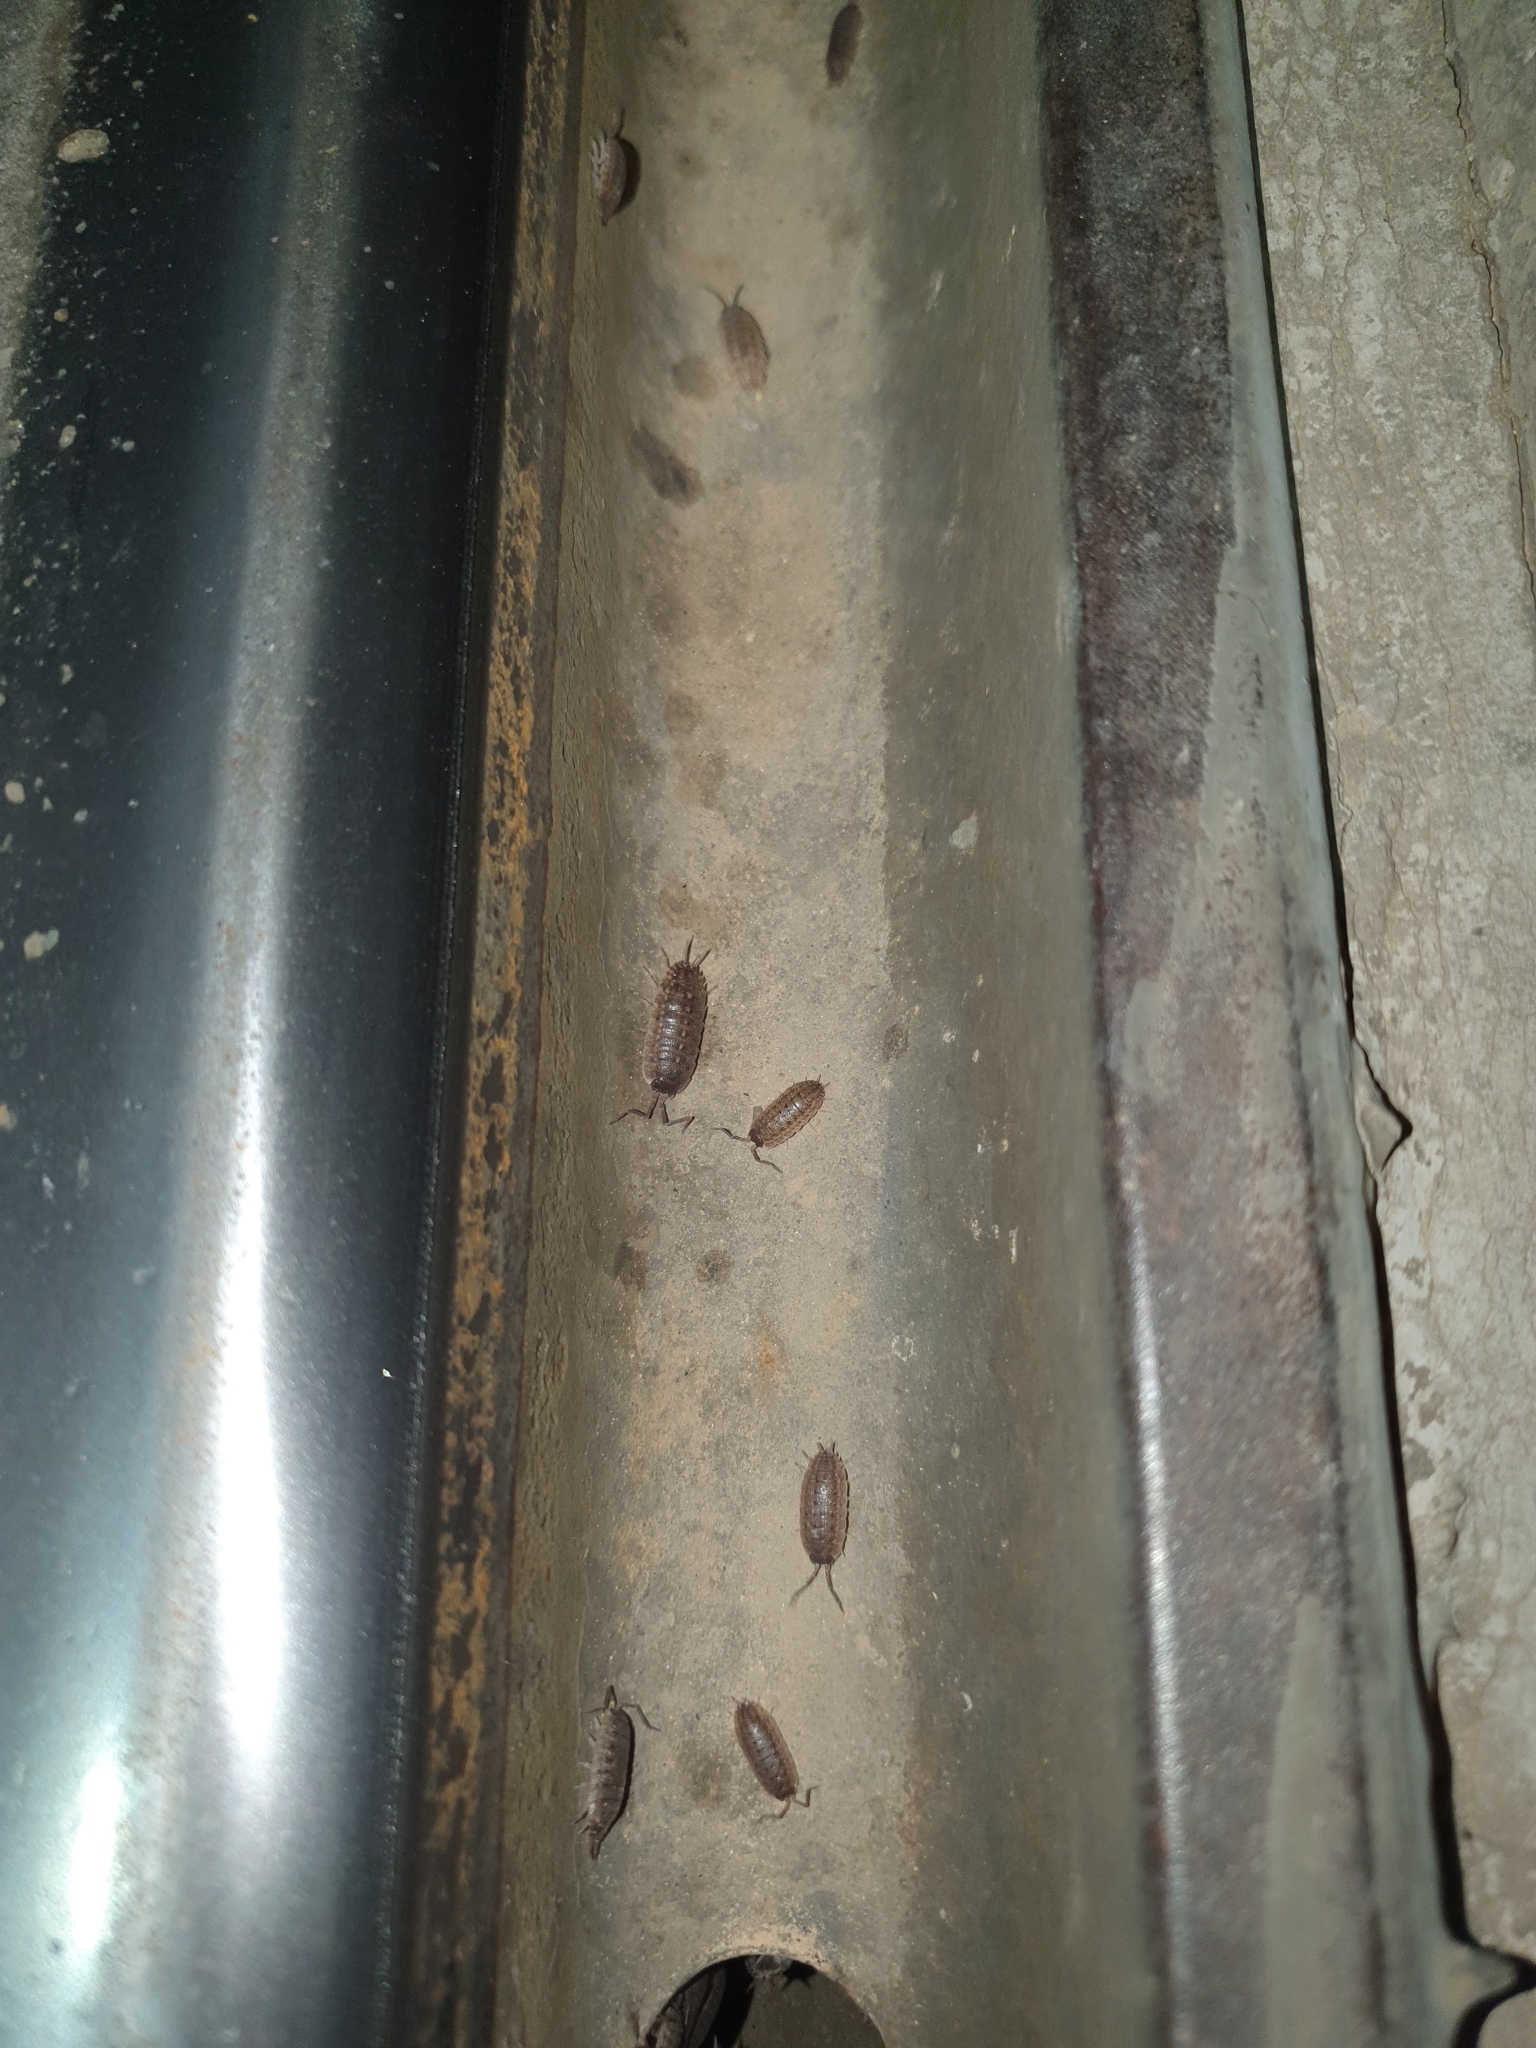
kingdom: Animalia
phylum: Arthropoda
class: Malacostraca
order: Isopoda
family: Porcellionidae
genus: Porcellio
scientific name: Porcellio variabilis
